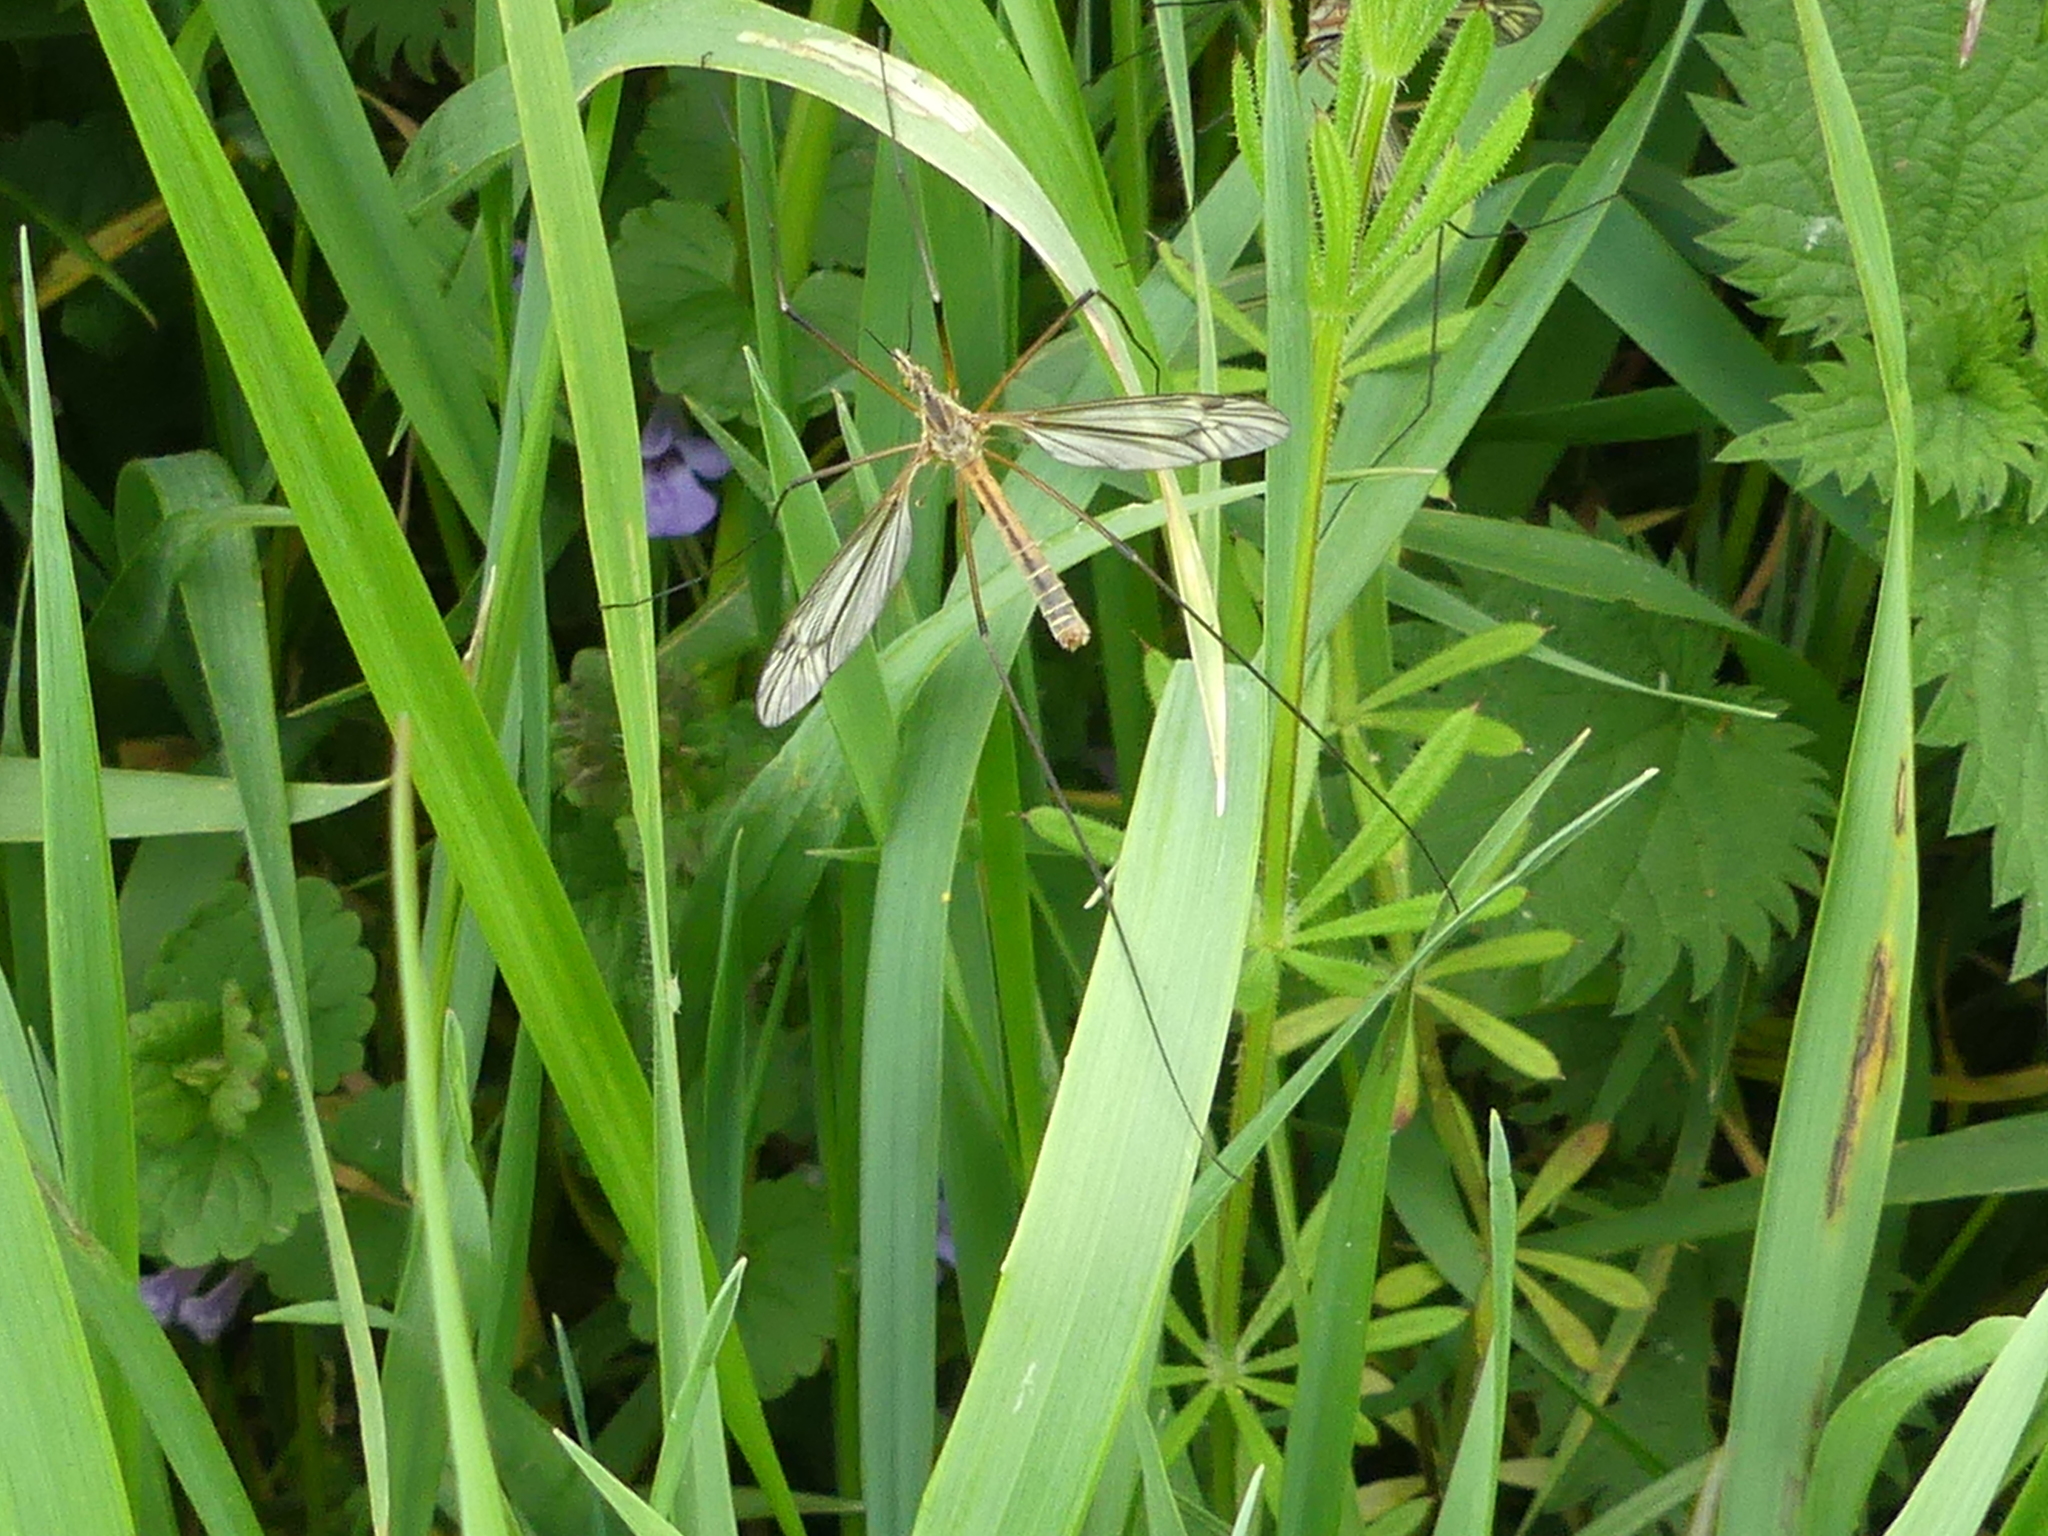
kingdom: Animalia
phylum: Arthropoda
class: Insecta
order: Diptera
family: Tipulidae
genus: Tipula
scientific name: Tipula vernalis
